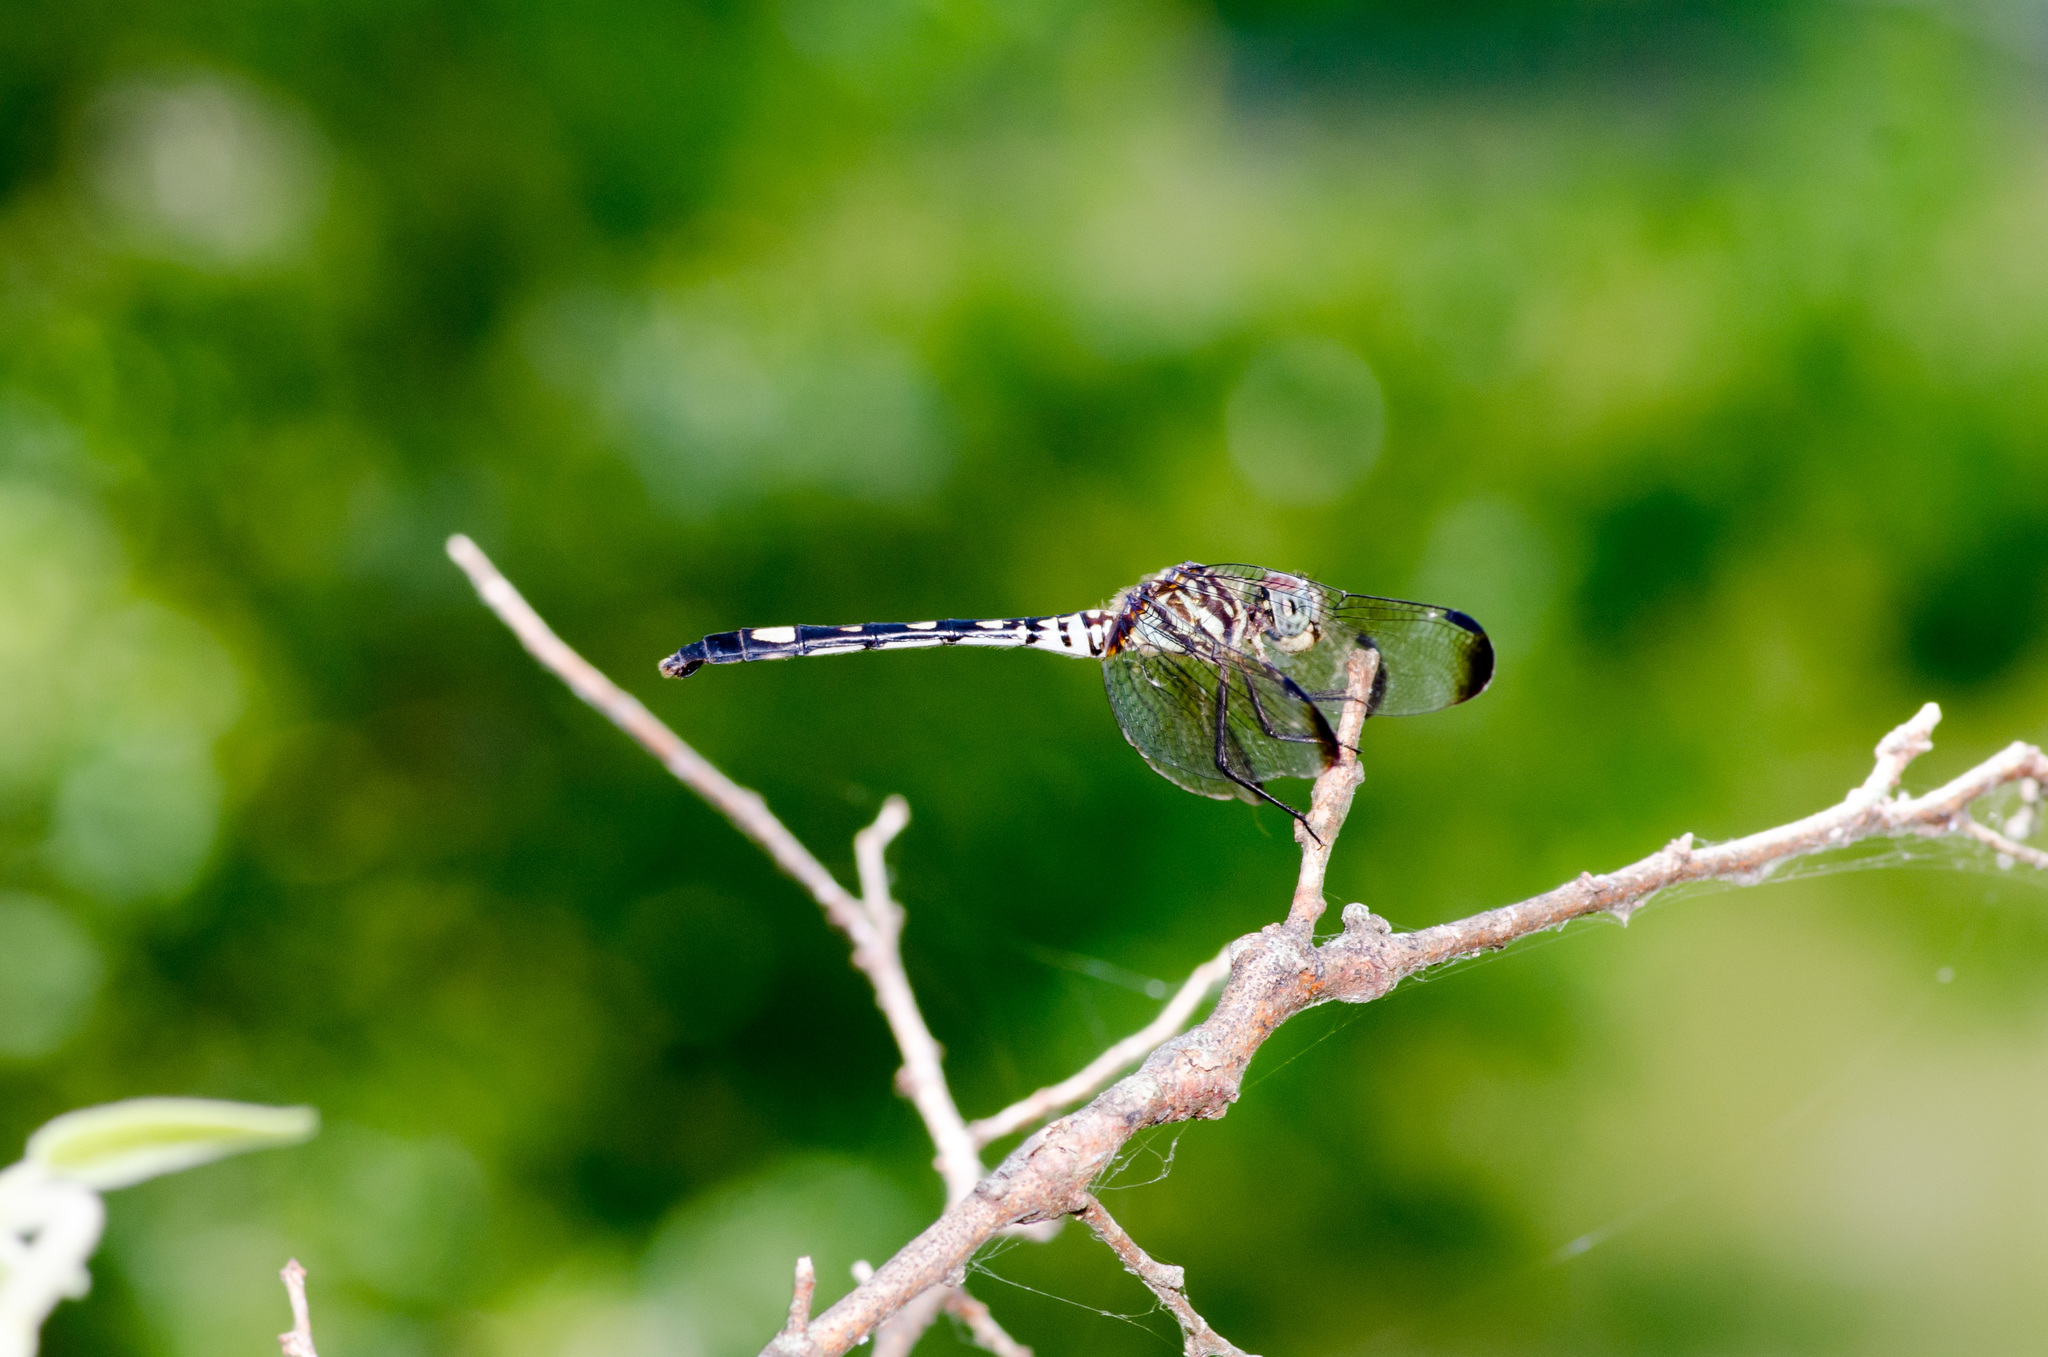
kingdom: Animalia
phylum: Arthropoda
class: Insecta
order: Odonata
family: Libellulidae
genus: Dythemis
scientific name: Dythemis velox
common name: Swift setwing
